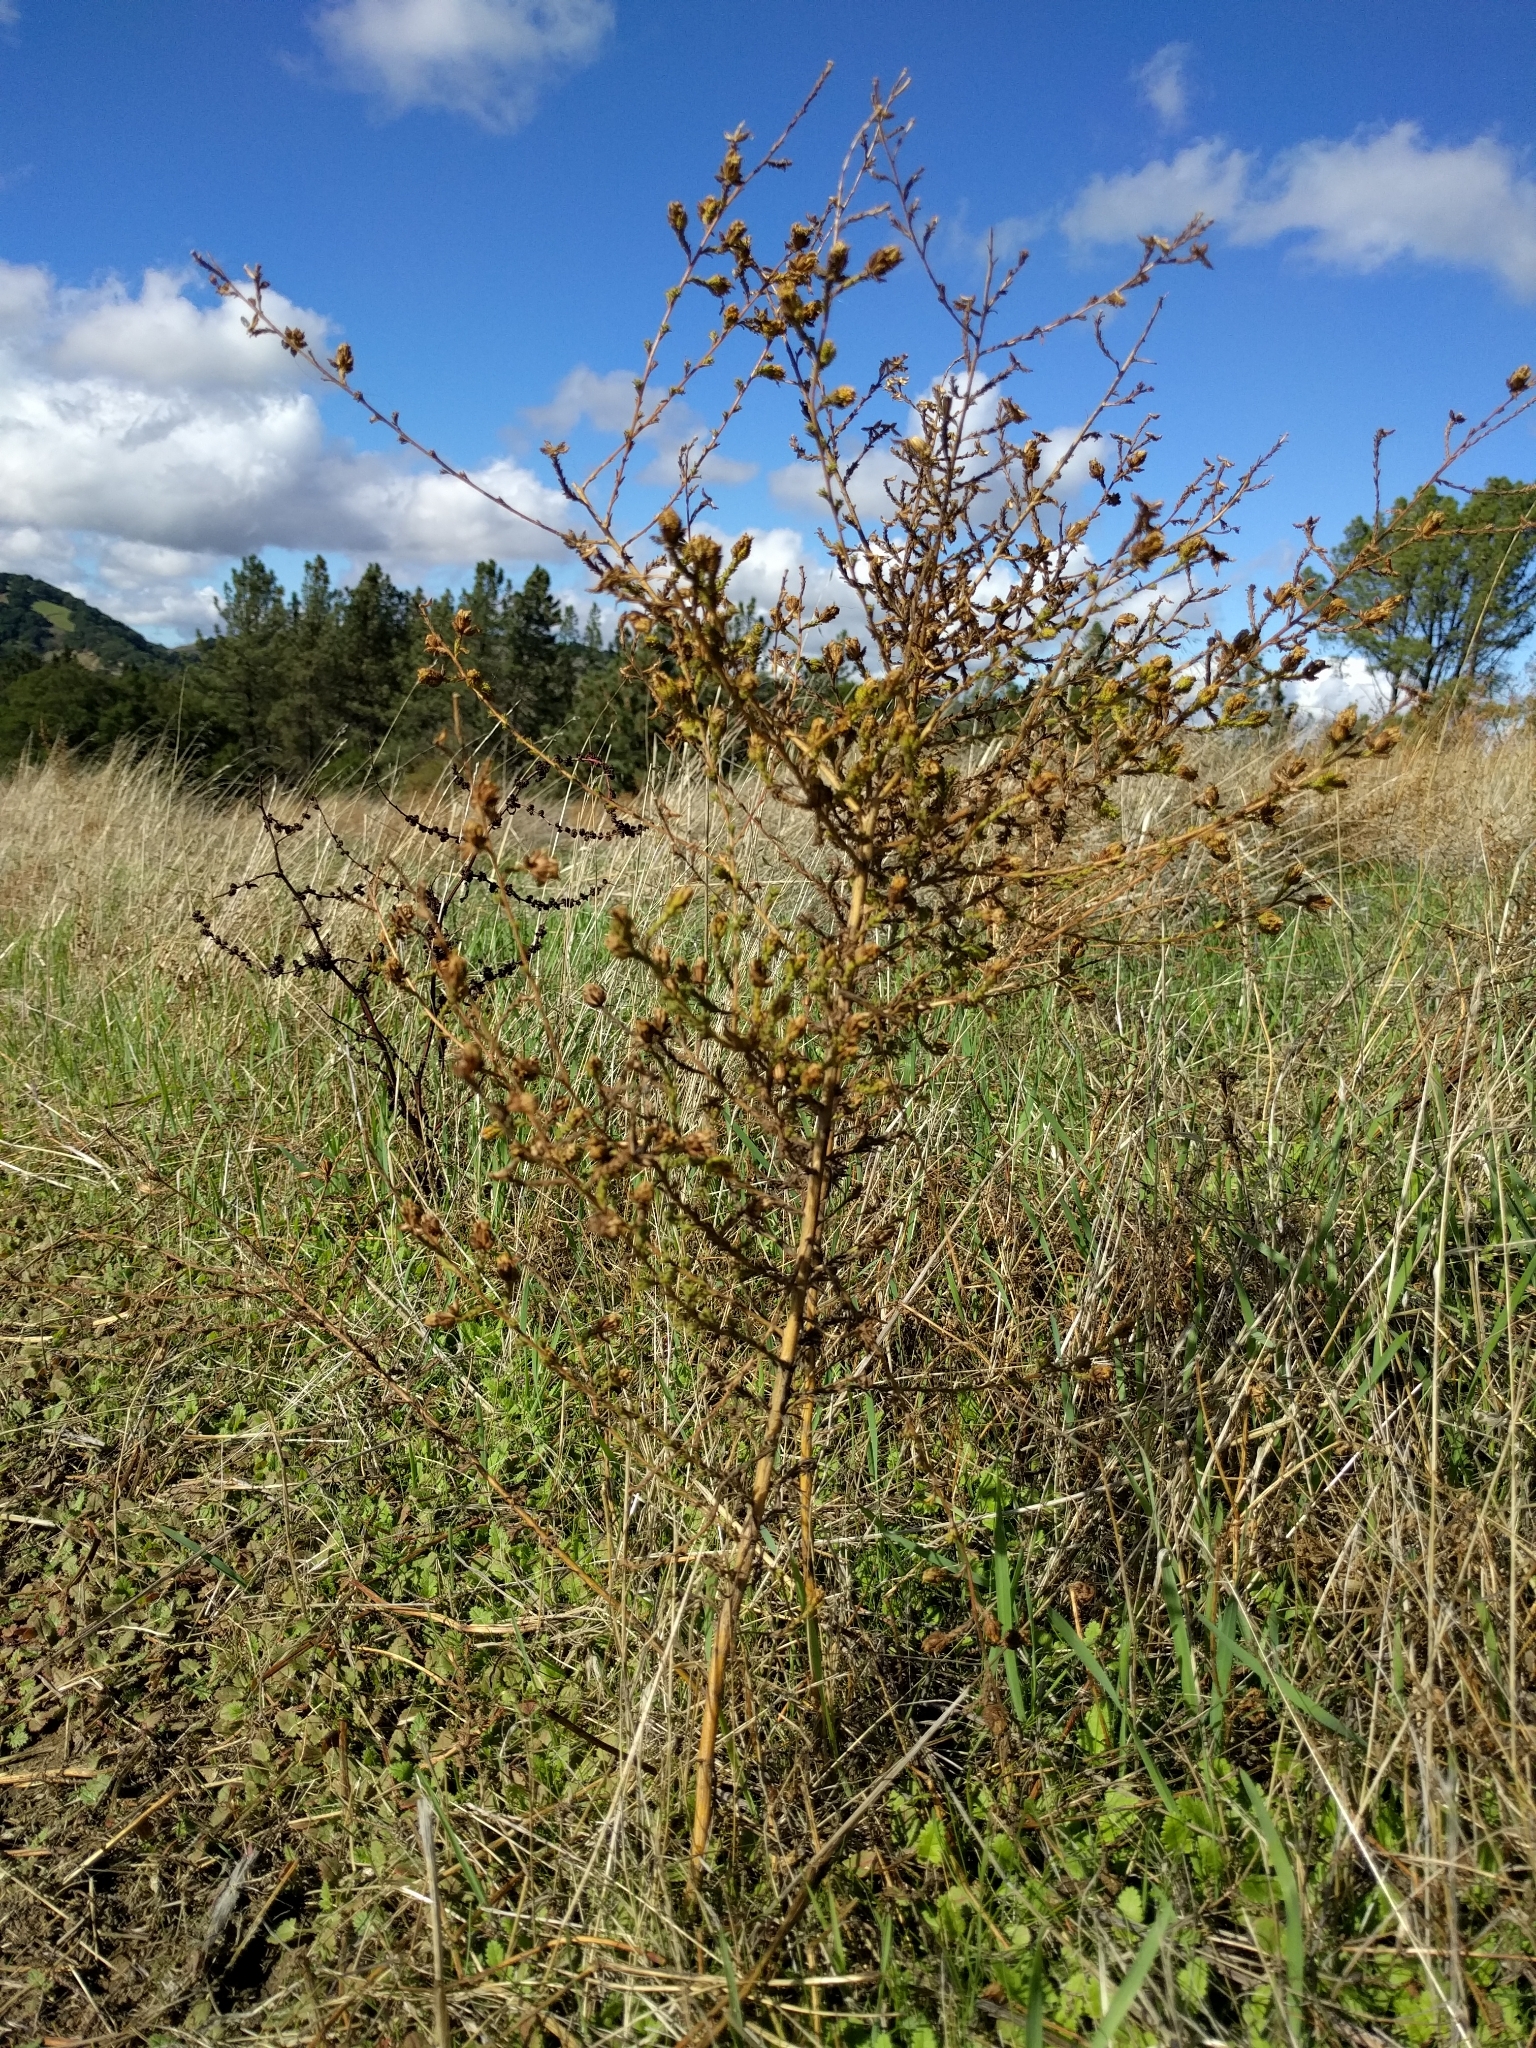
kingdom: Plantae
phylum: Tracheophyta
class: Magnoliopsida
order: Asterales
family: Asteraceae
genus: Holocarpha
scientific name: Holocarpha heermannii
